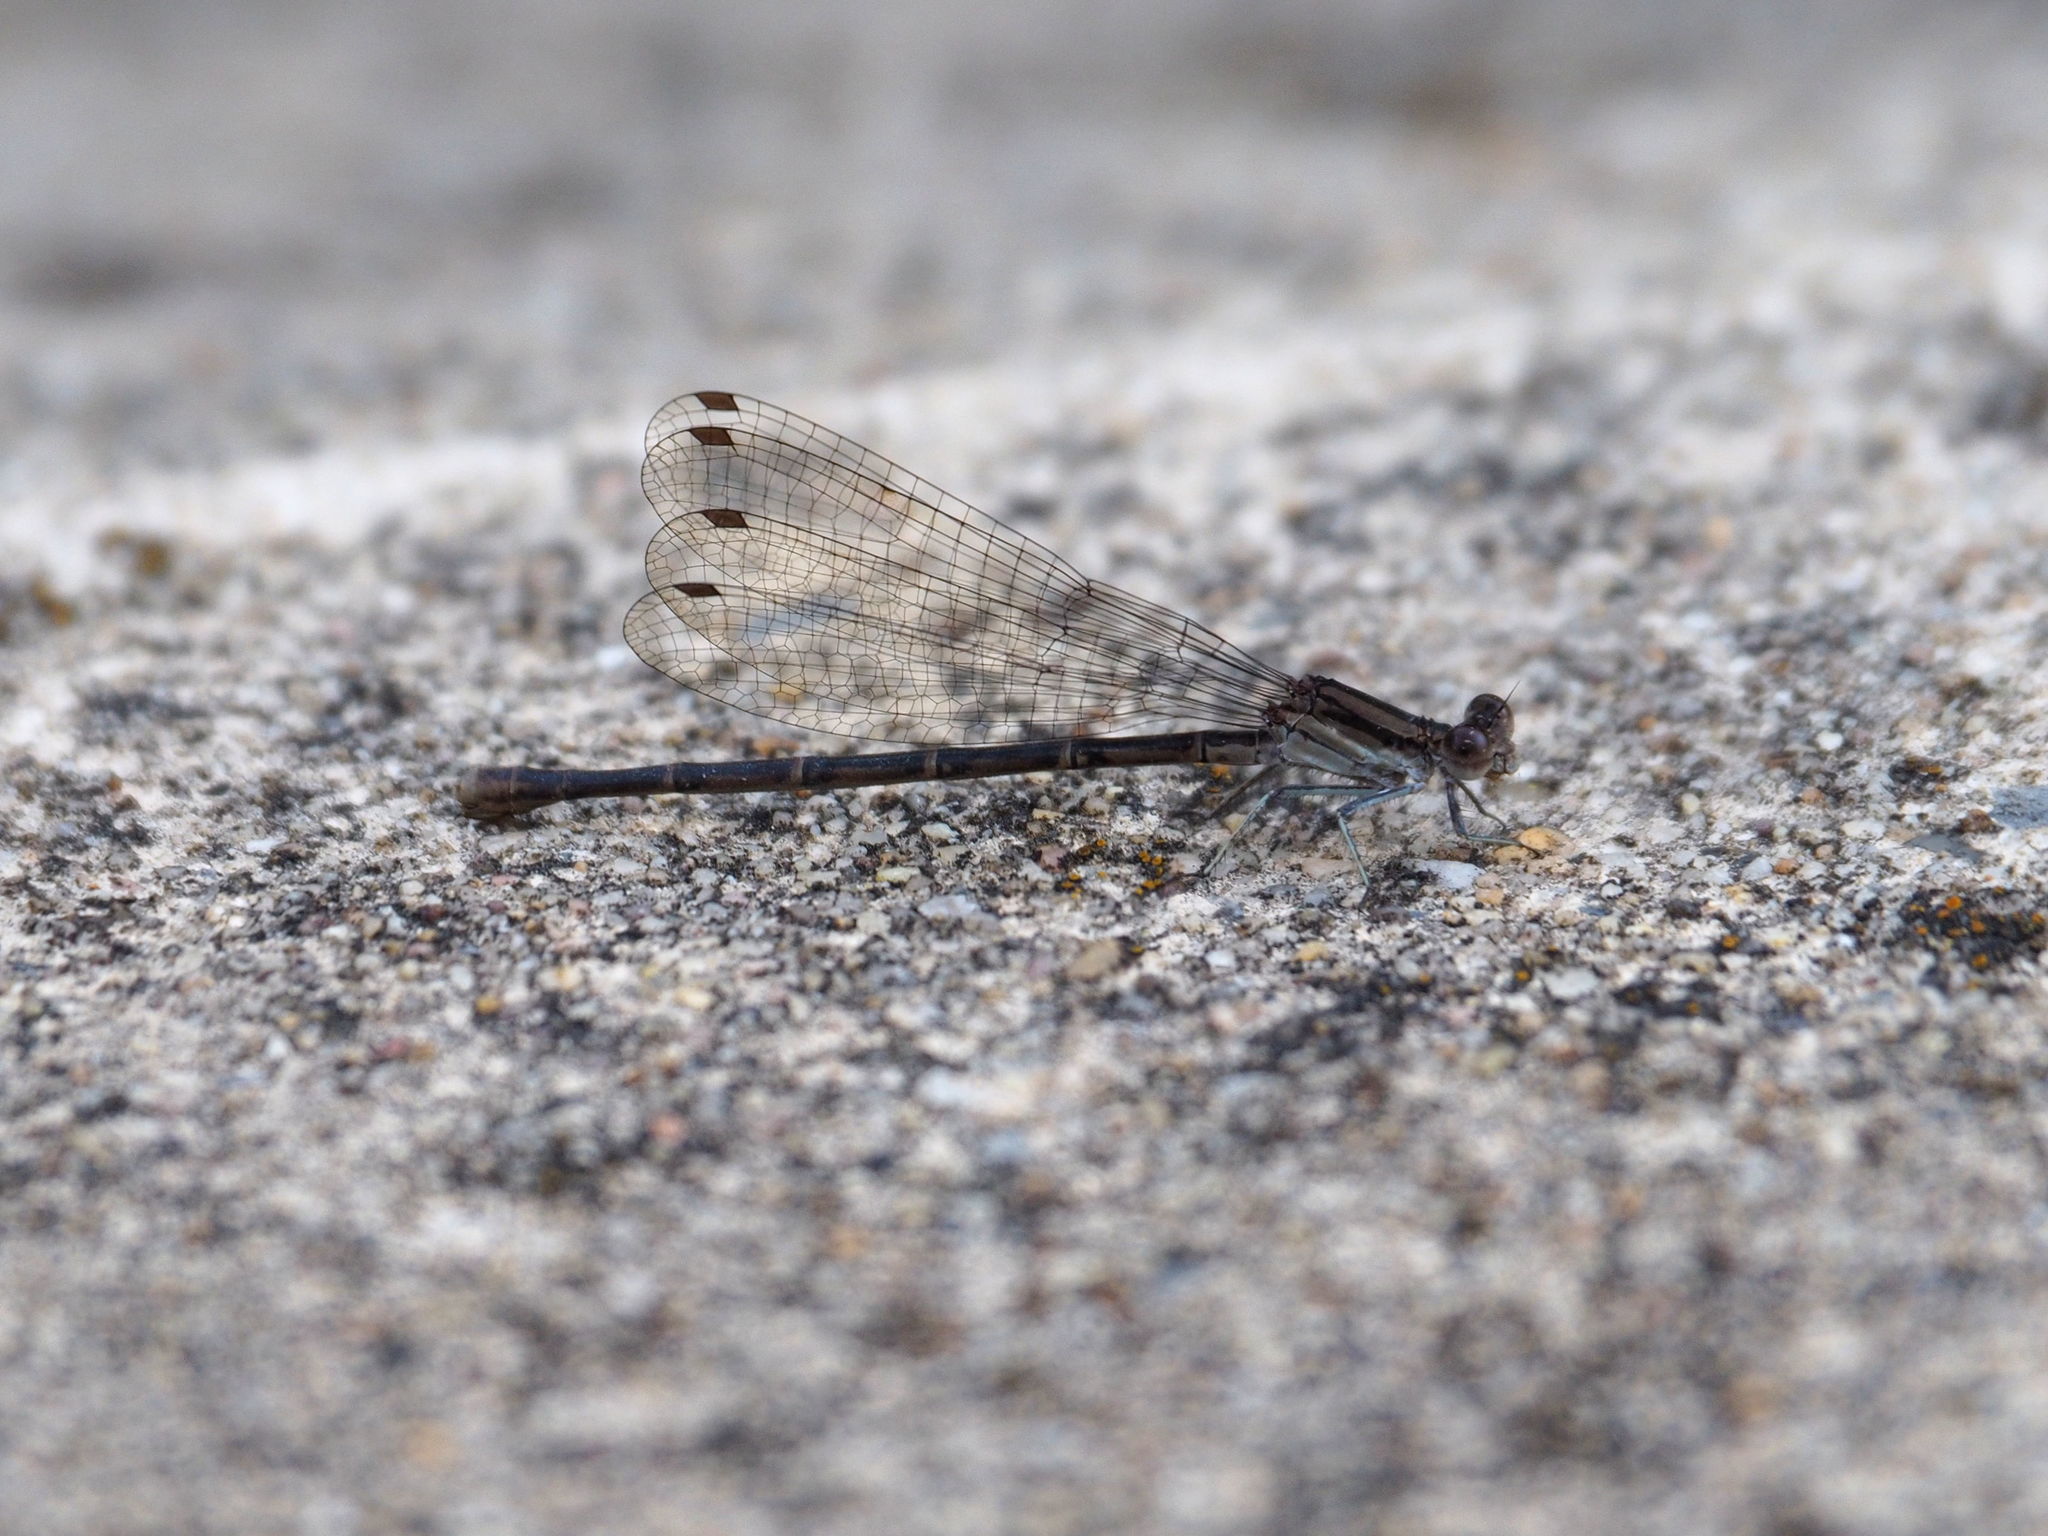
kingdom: Animalia
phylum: Arthropoda
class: Insecta
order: Odonata
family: Coenagrionidae
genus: Argia
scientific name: Argia fumipennis
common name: Variable dancer
